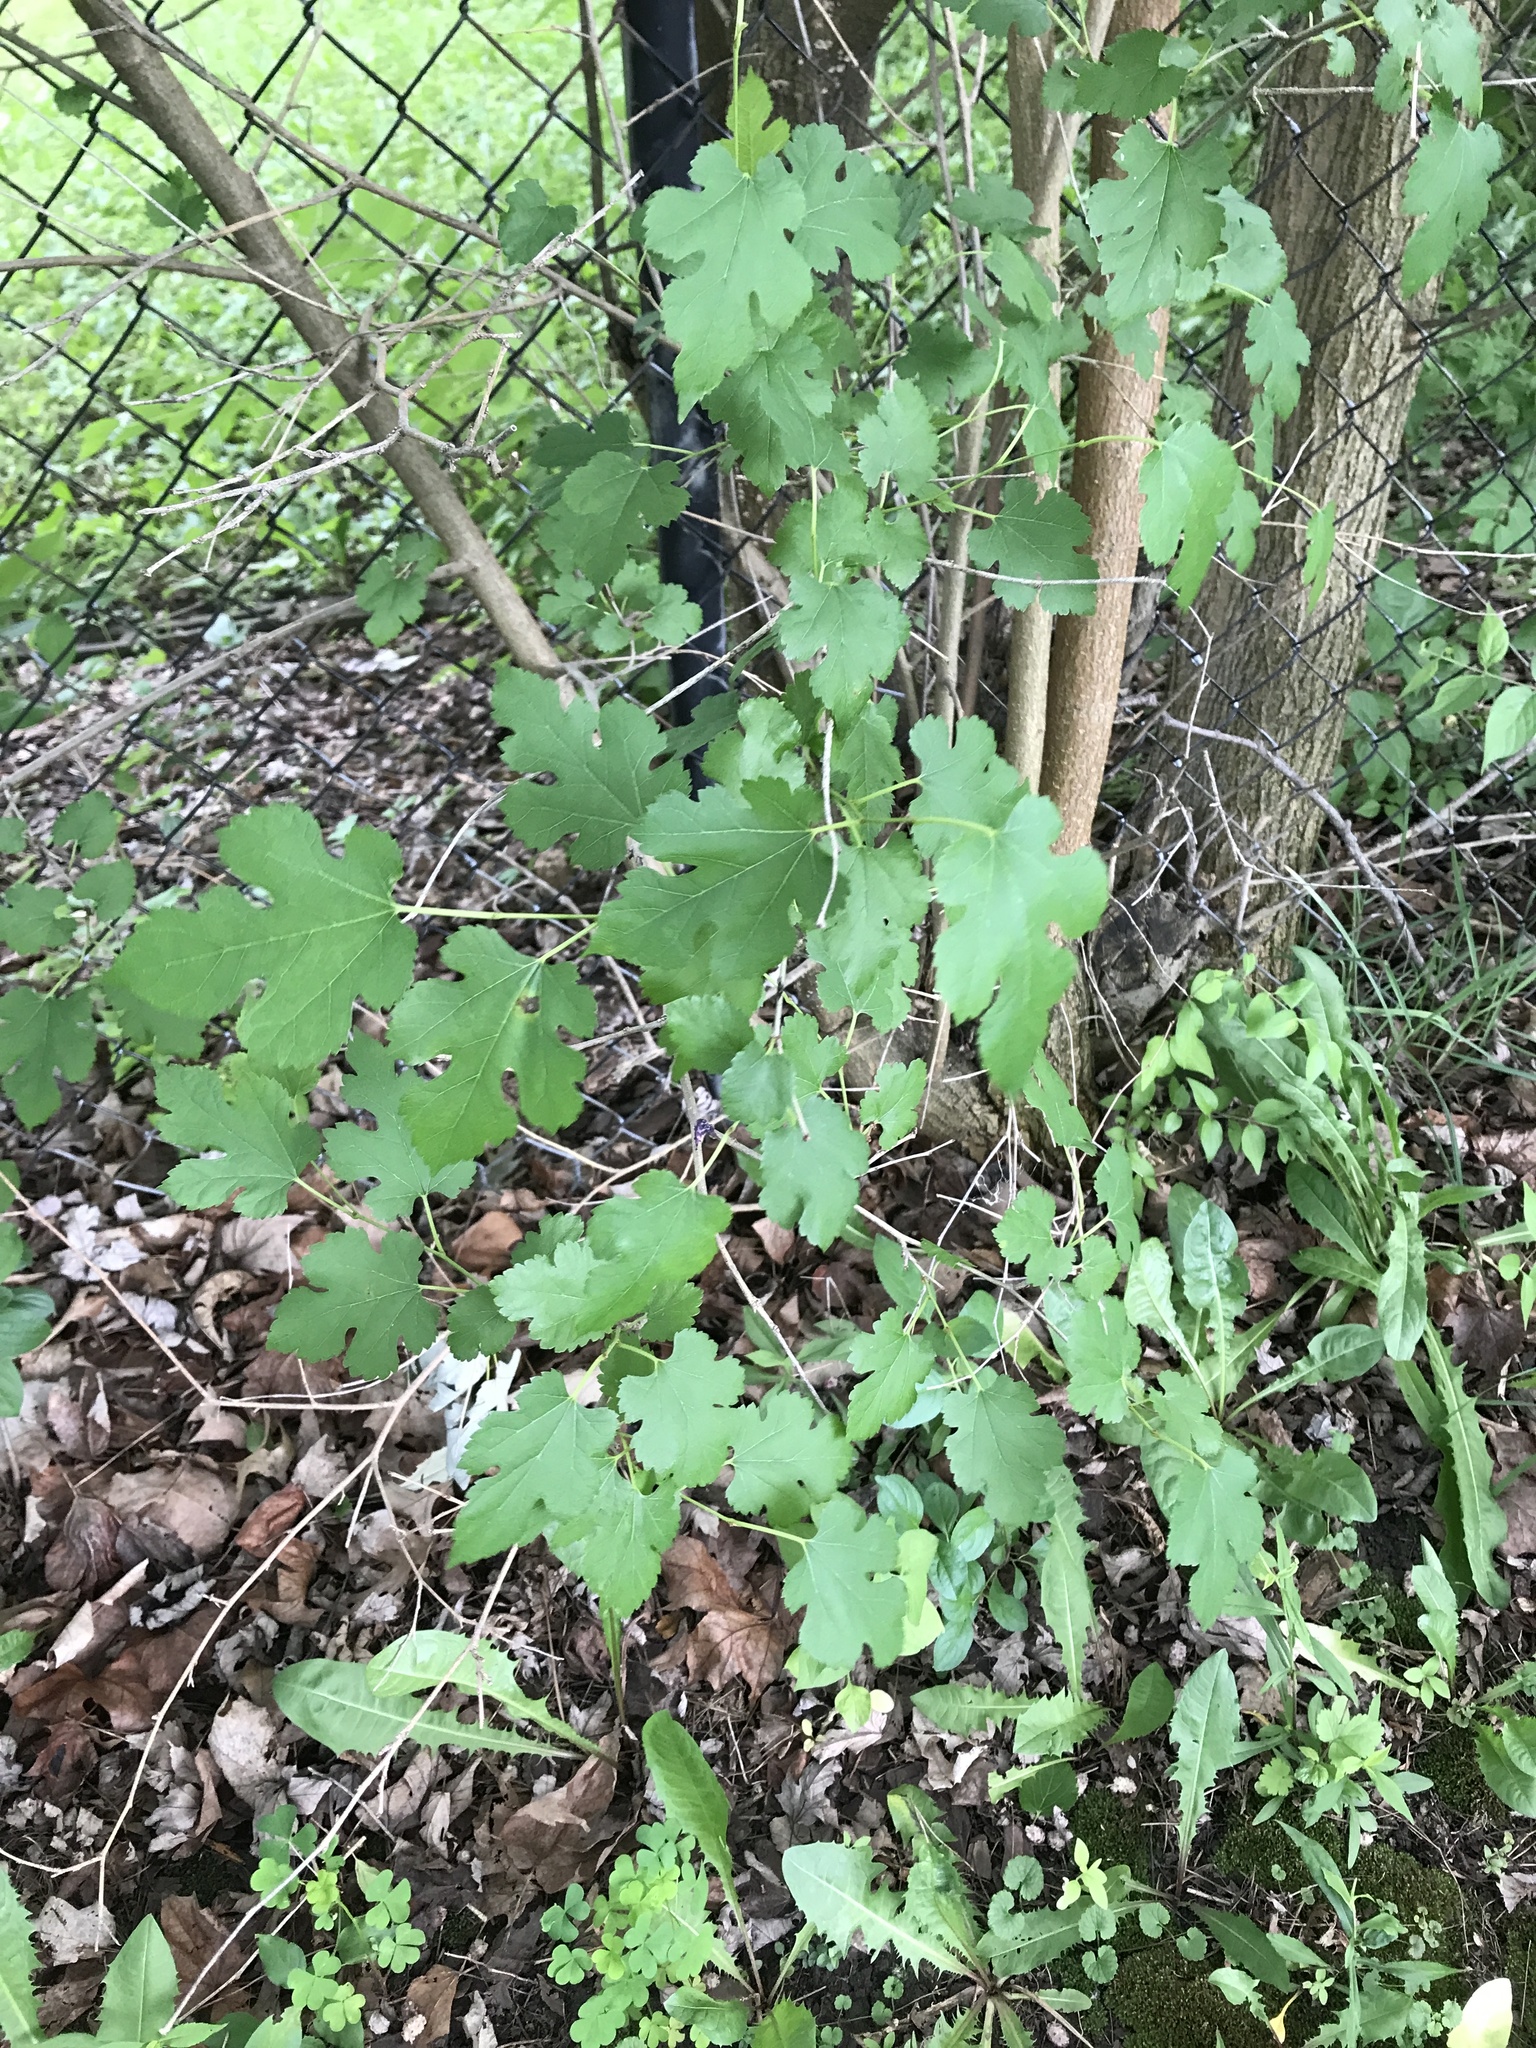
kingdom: Plantae
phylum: Tracheophyta
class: Magnoliopsida
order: Rosales
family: Moraceae
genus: Morus
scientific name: Morus alba
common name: White mulberry
